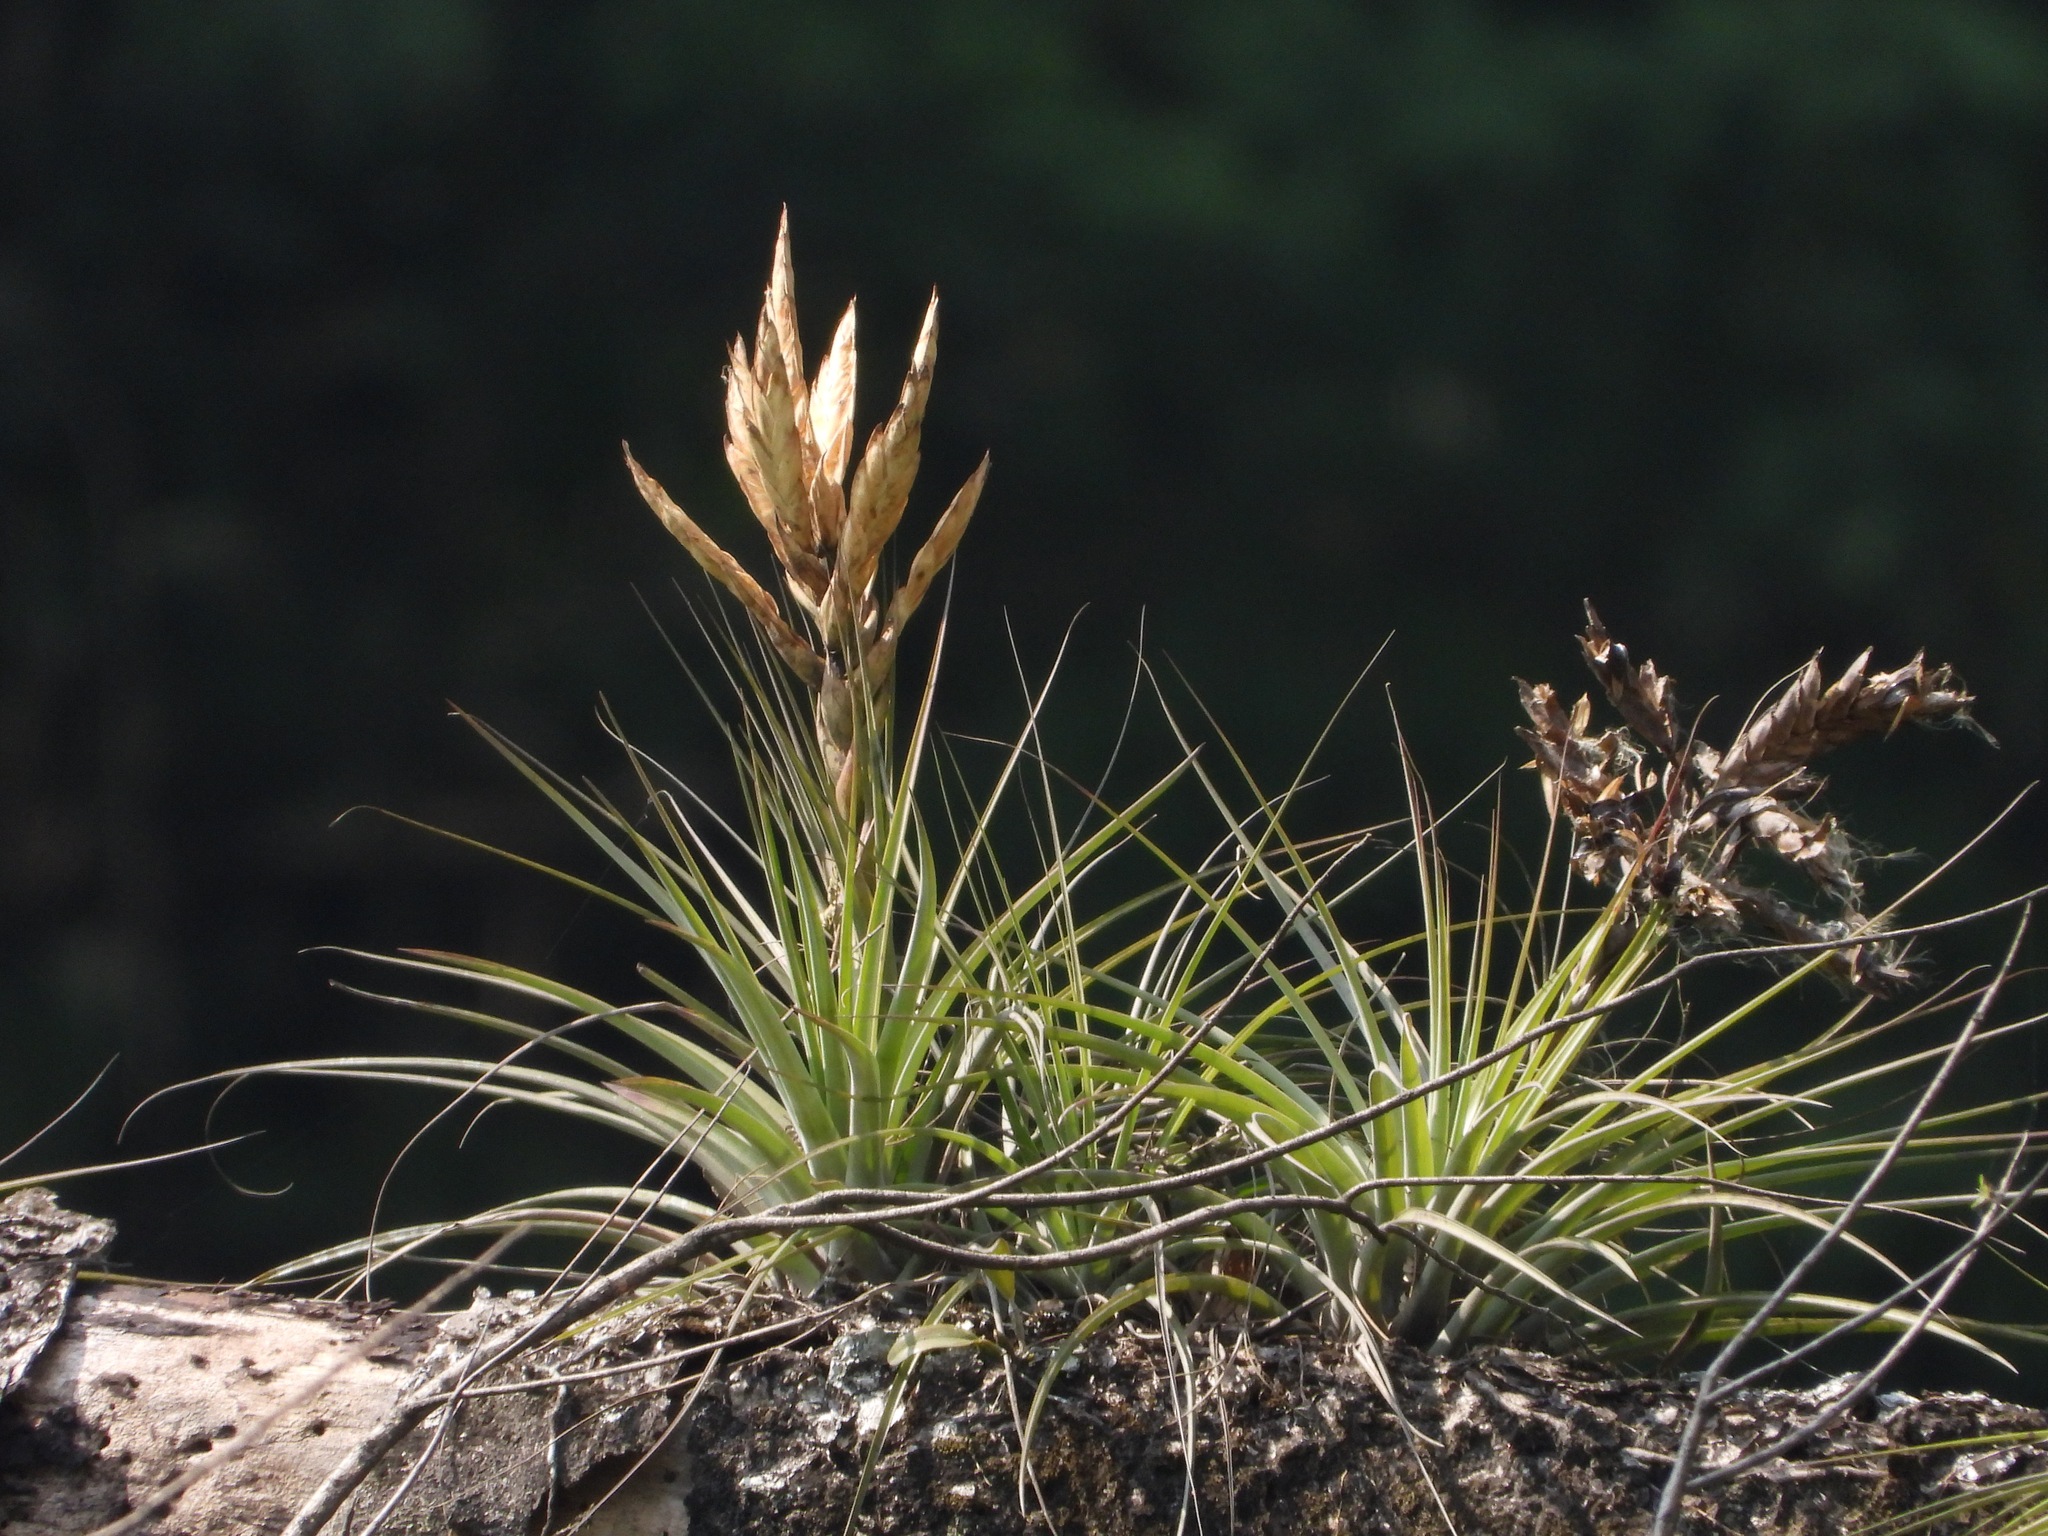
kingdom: Plantae
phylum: Tracheophyta
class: Liliopsida
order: Poales
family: Bromeliaceae
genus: Tillandsia
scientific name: Tillandsia fasciculata
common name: Giant airplant
